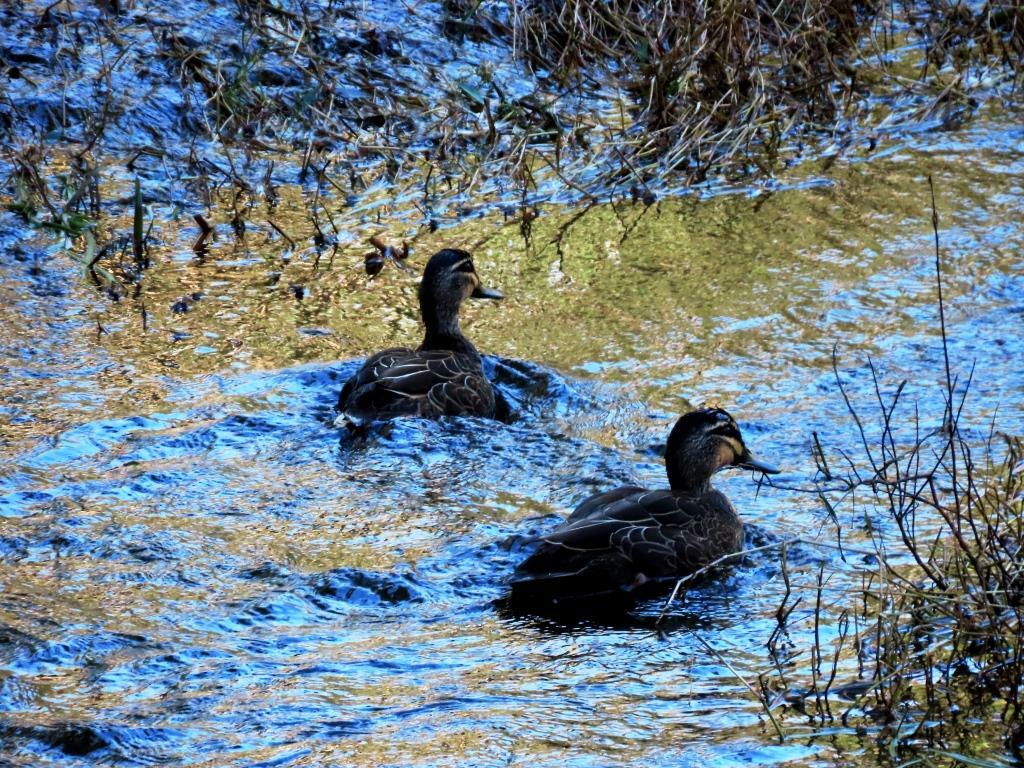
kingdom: Animalia
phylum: Chordata
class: Aves
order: Anseriformes
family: Anatidae
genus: Anas
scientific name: Anas superciliosa
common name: Pacific black duck
